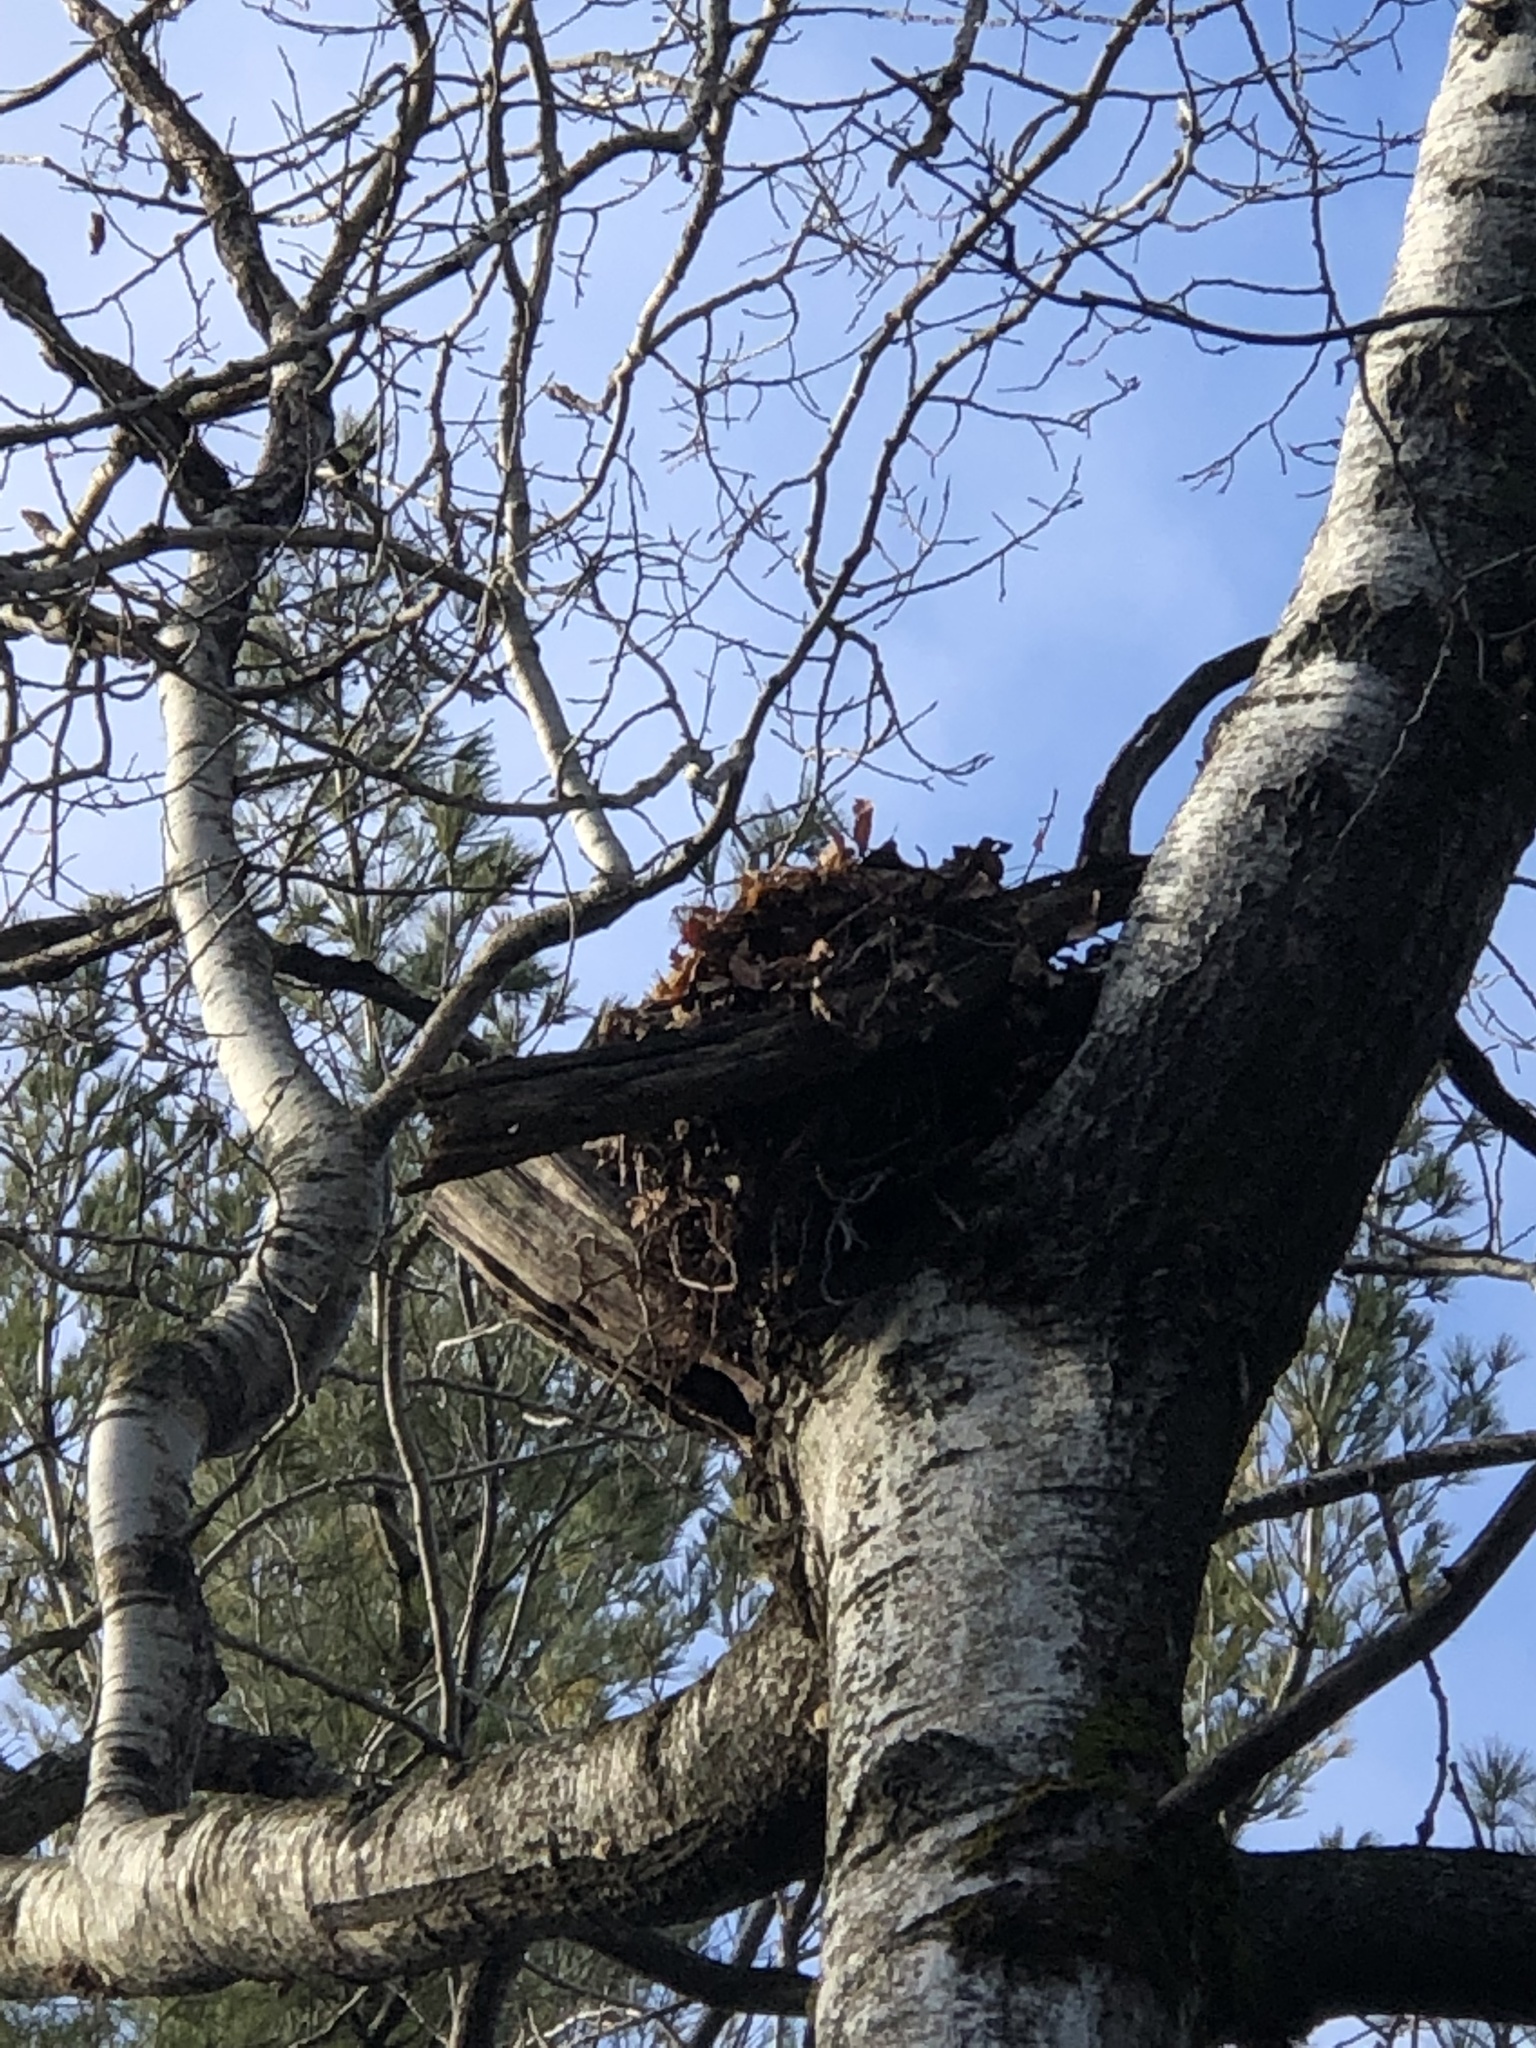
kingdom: Animalia
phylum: Chordata
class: Mammalia
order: Rodentia
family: Sciuridae
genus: Sciurus
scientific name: Sciurus carolinensis
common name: Eastern gray squirrel
